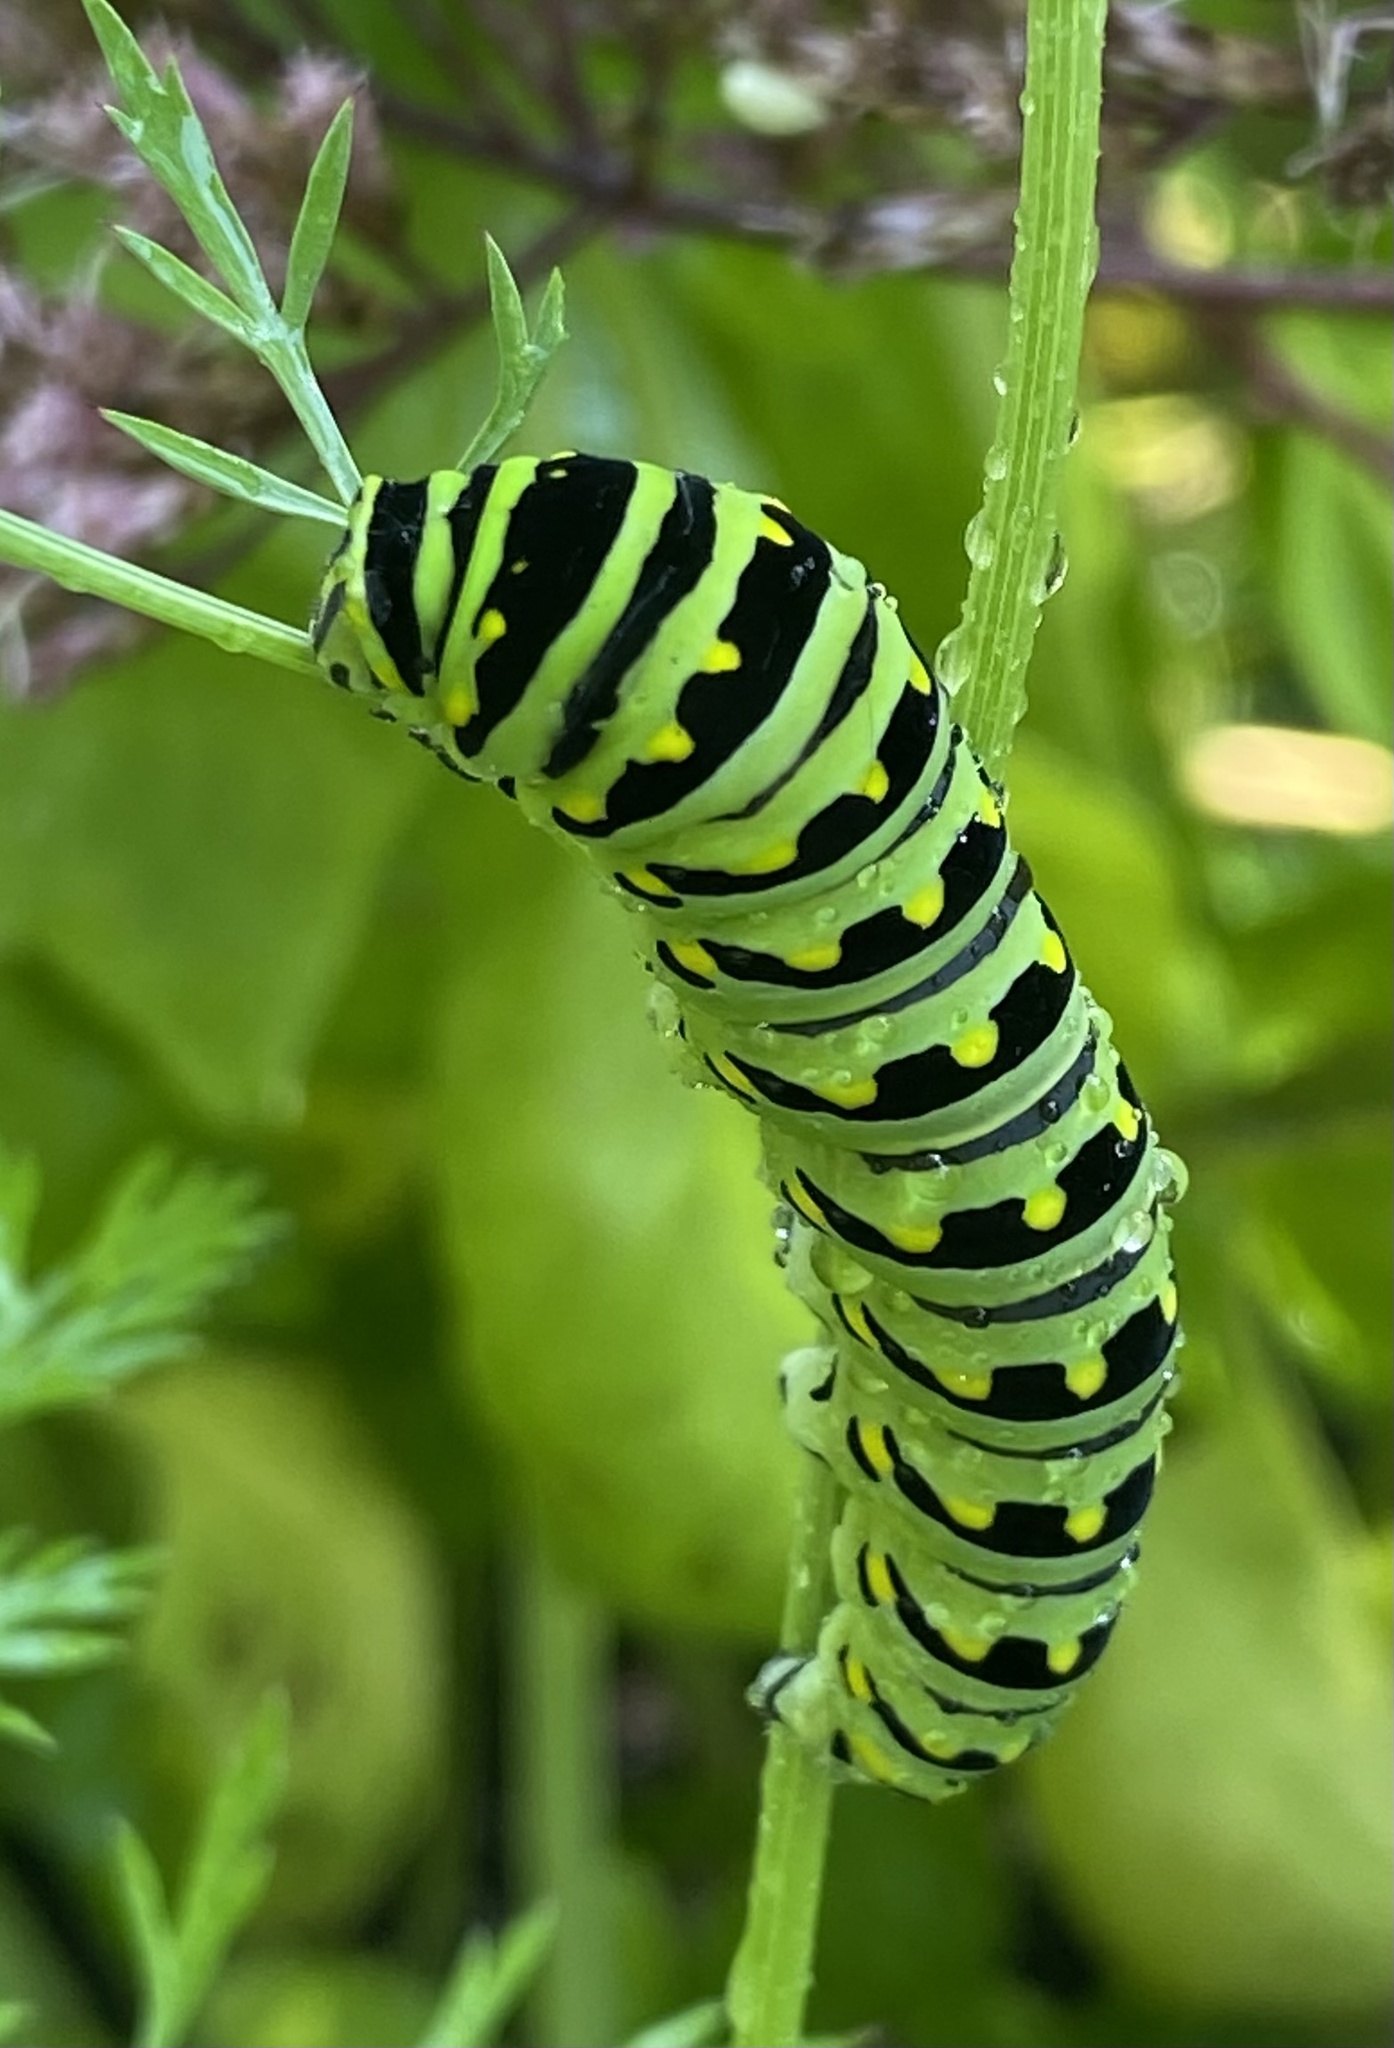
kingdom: Animalia
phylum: Arthropoda
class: Insecta
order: Lepidoptera
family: Papilionidae
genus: Papilio
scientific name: Papilio polyxenes
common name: Black swallowtail
